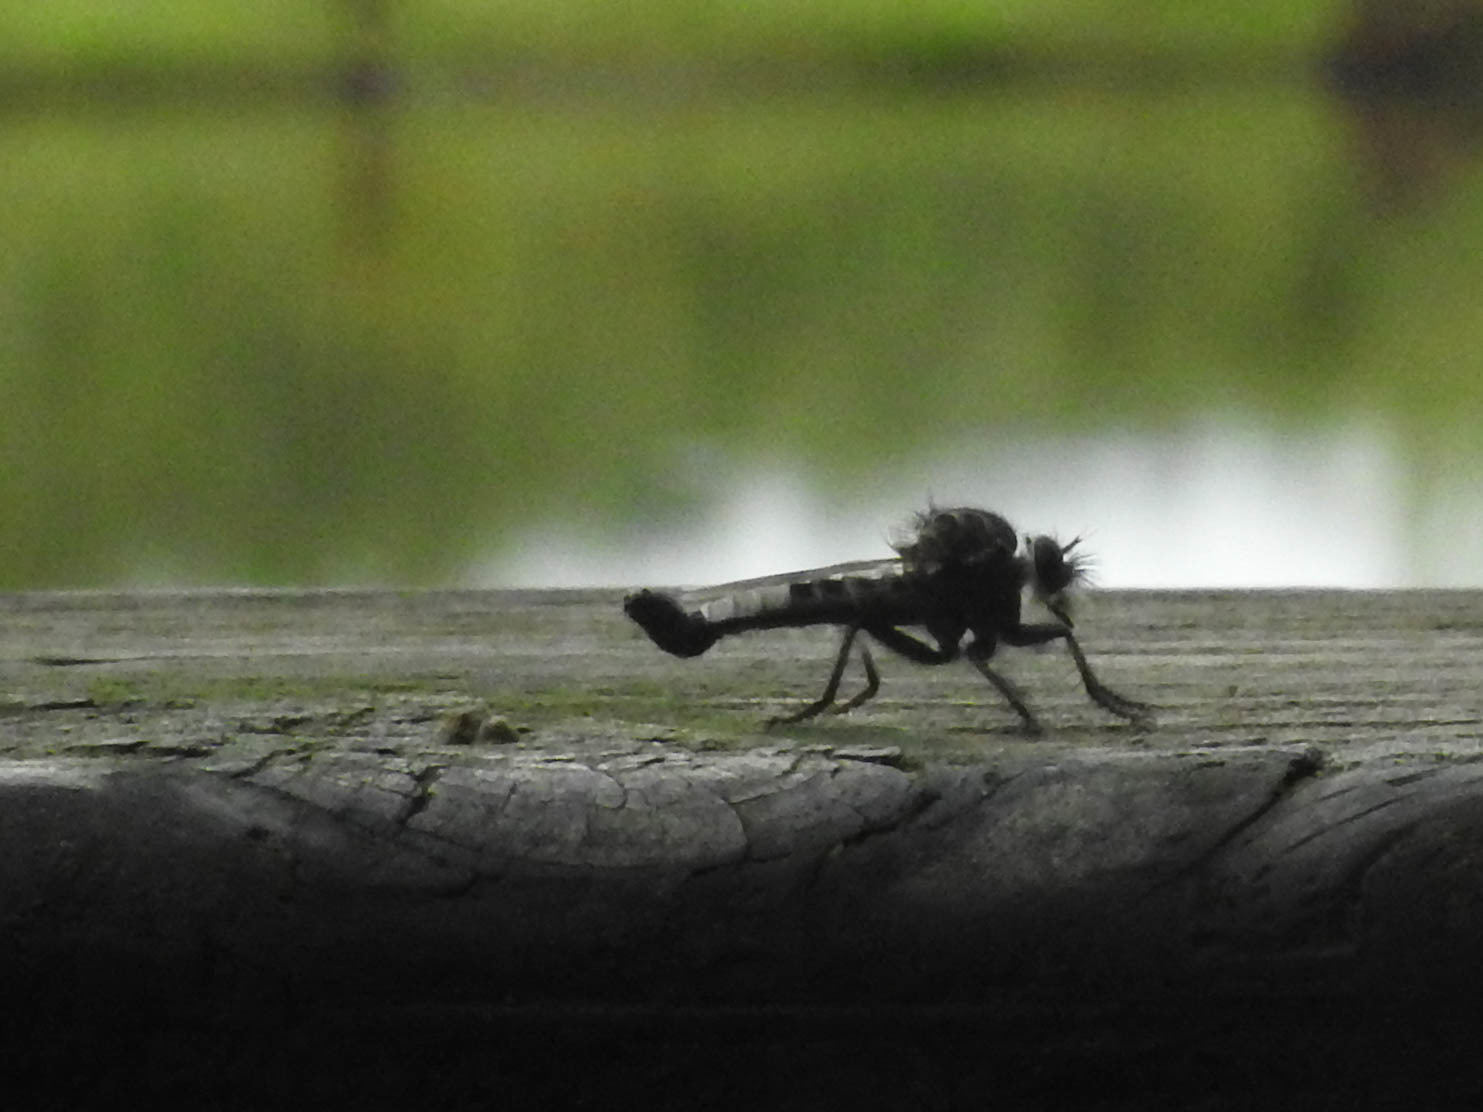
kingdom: Animalia
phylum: Arthropoda
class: Insecta
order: Diptera
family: Asilidae
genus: Efferia
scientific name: Efferia
